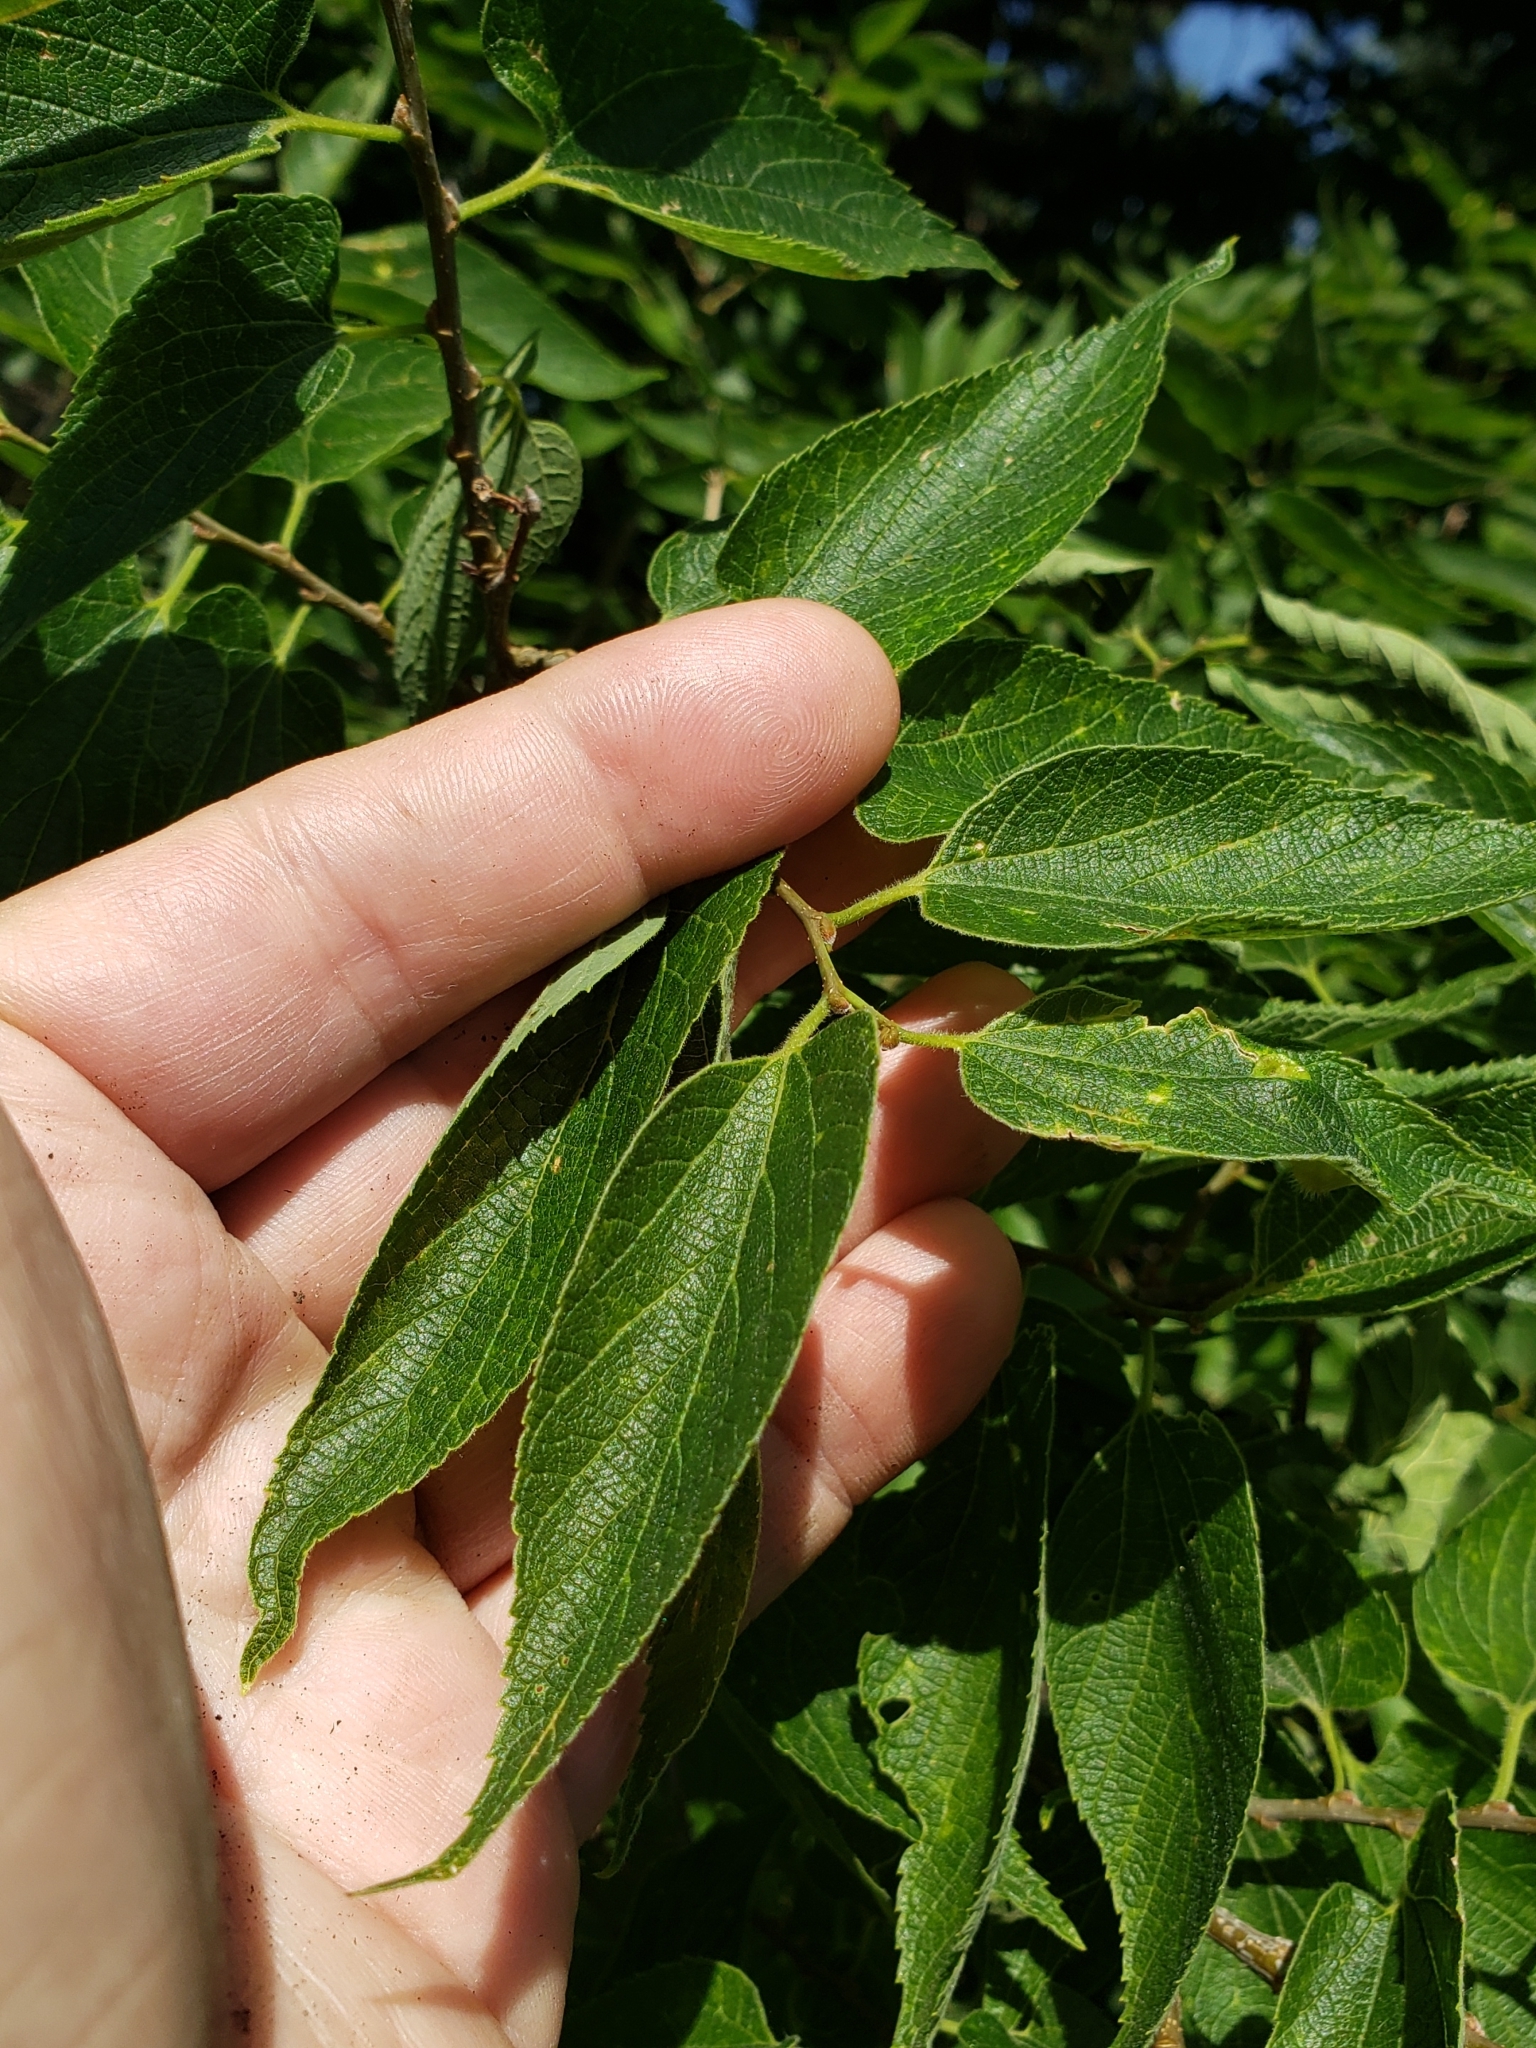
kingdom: Animalia
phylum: Arthropoda
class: Insecta
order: Hemiptera
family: Aphalaridae
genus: Pachypsylla
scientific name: Pachypsylla celtidismamma
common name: Hackberry nipplegall psyllid
